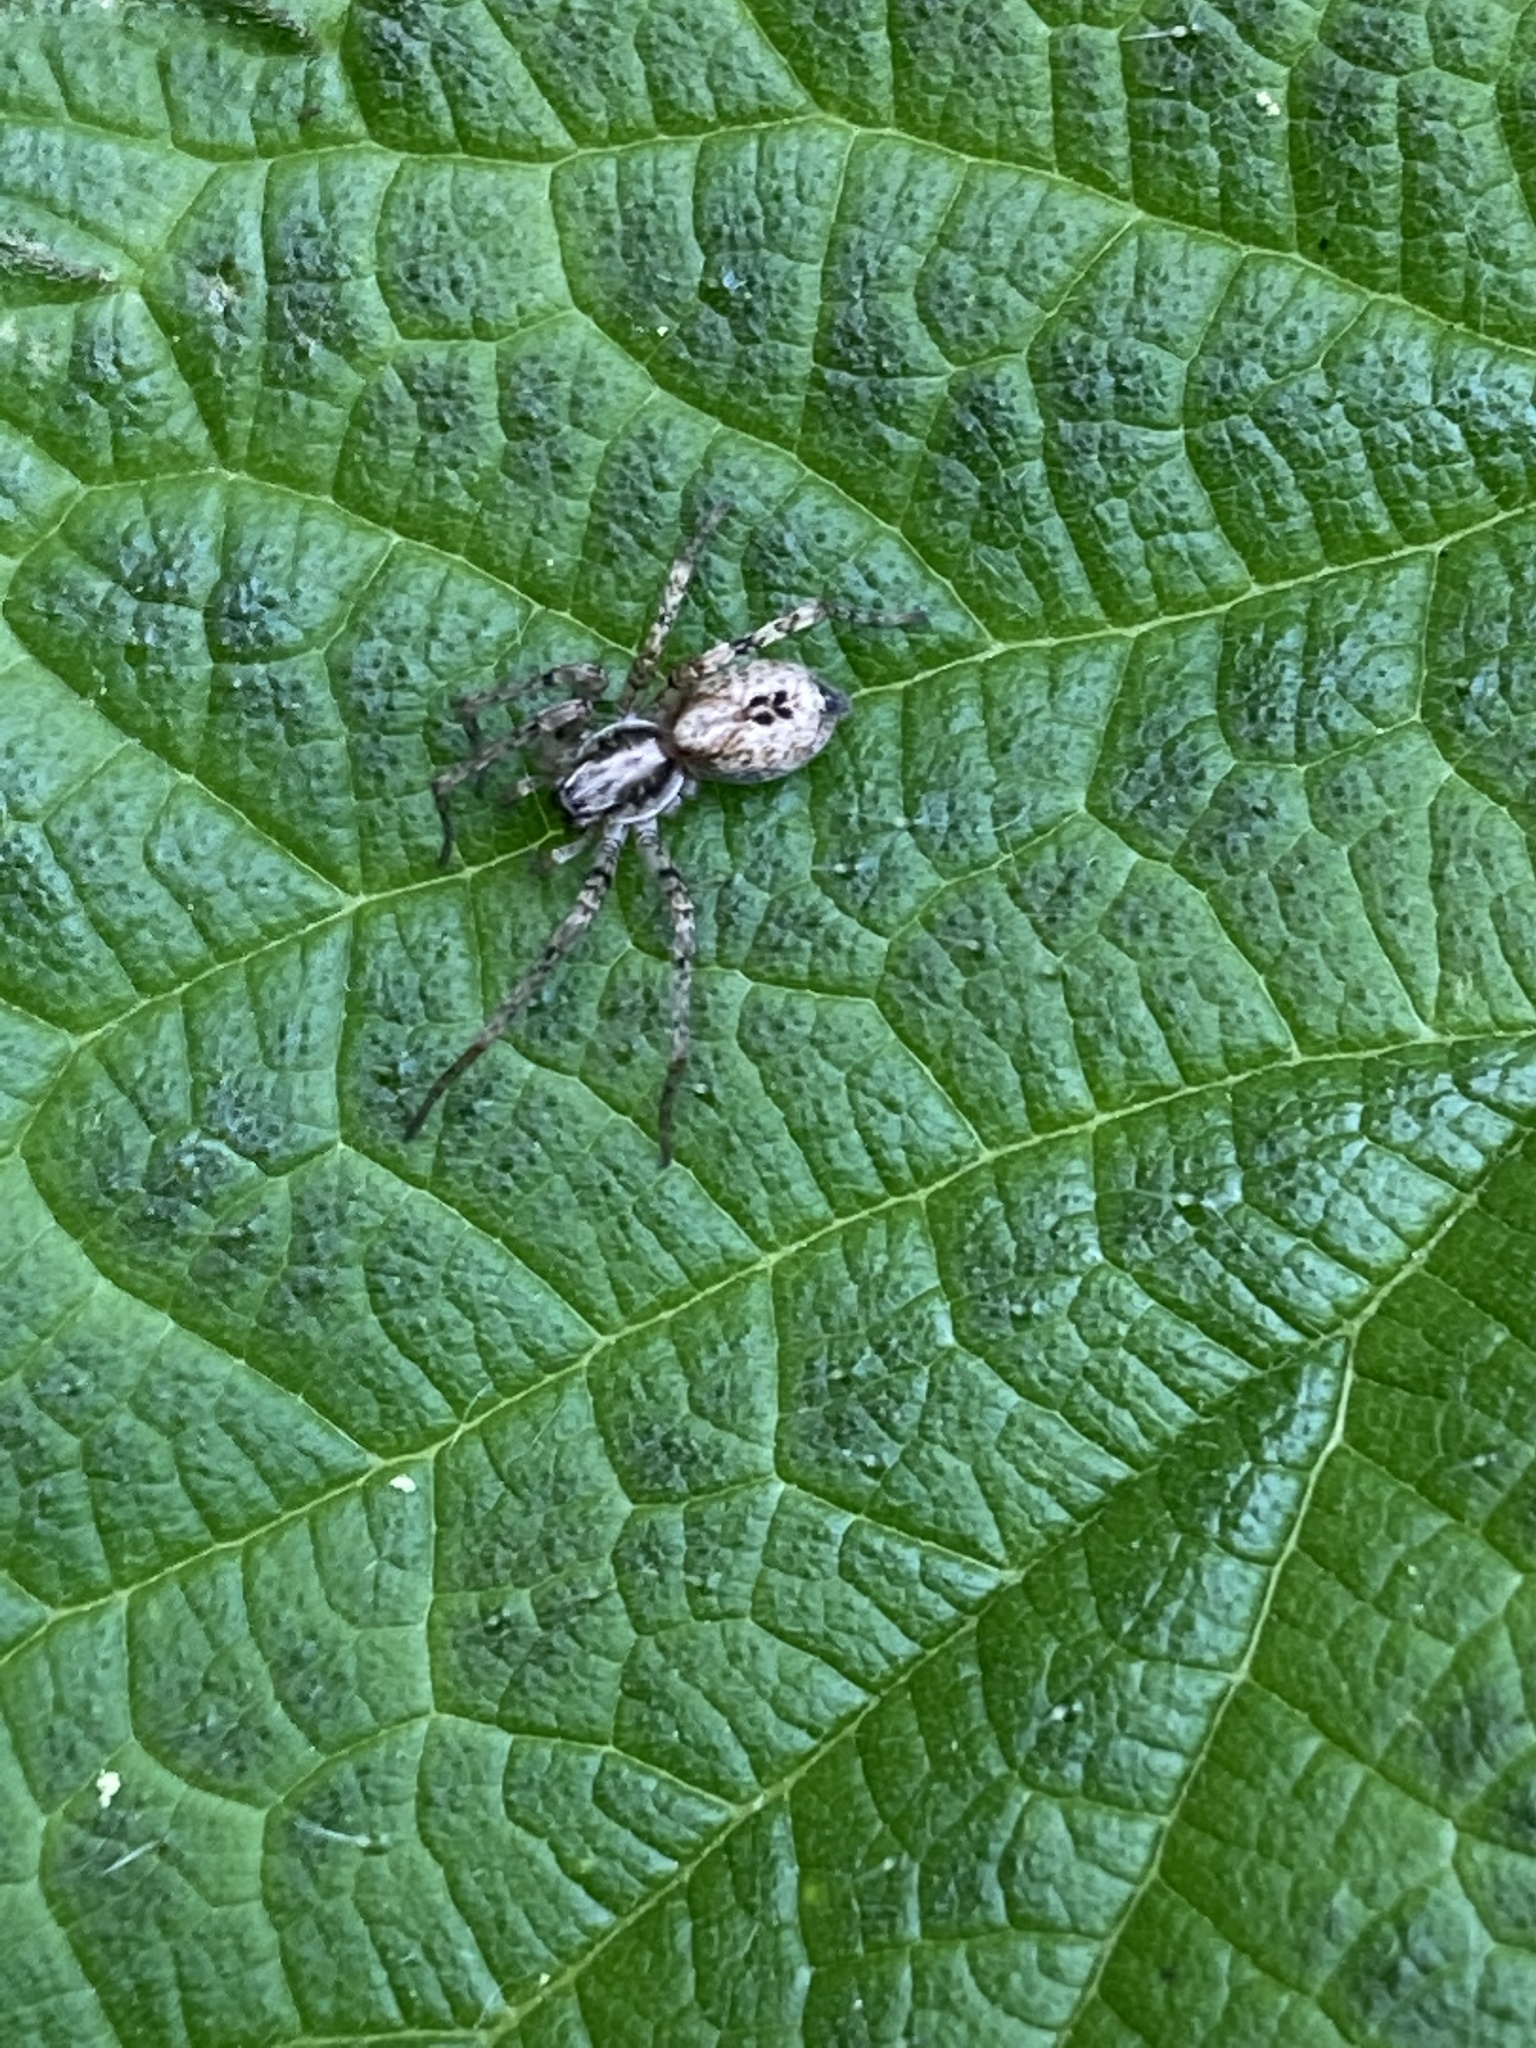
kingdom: Animalia
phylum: Arthropoda
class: Arachnida
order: Araneae
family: Anyphaenidae
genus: Anyphaena
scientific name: Anyphaena accentuata
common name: Buzzing spider
